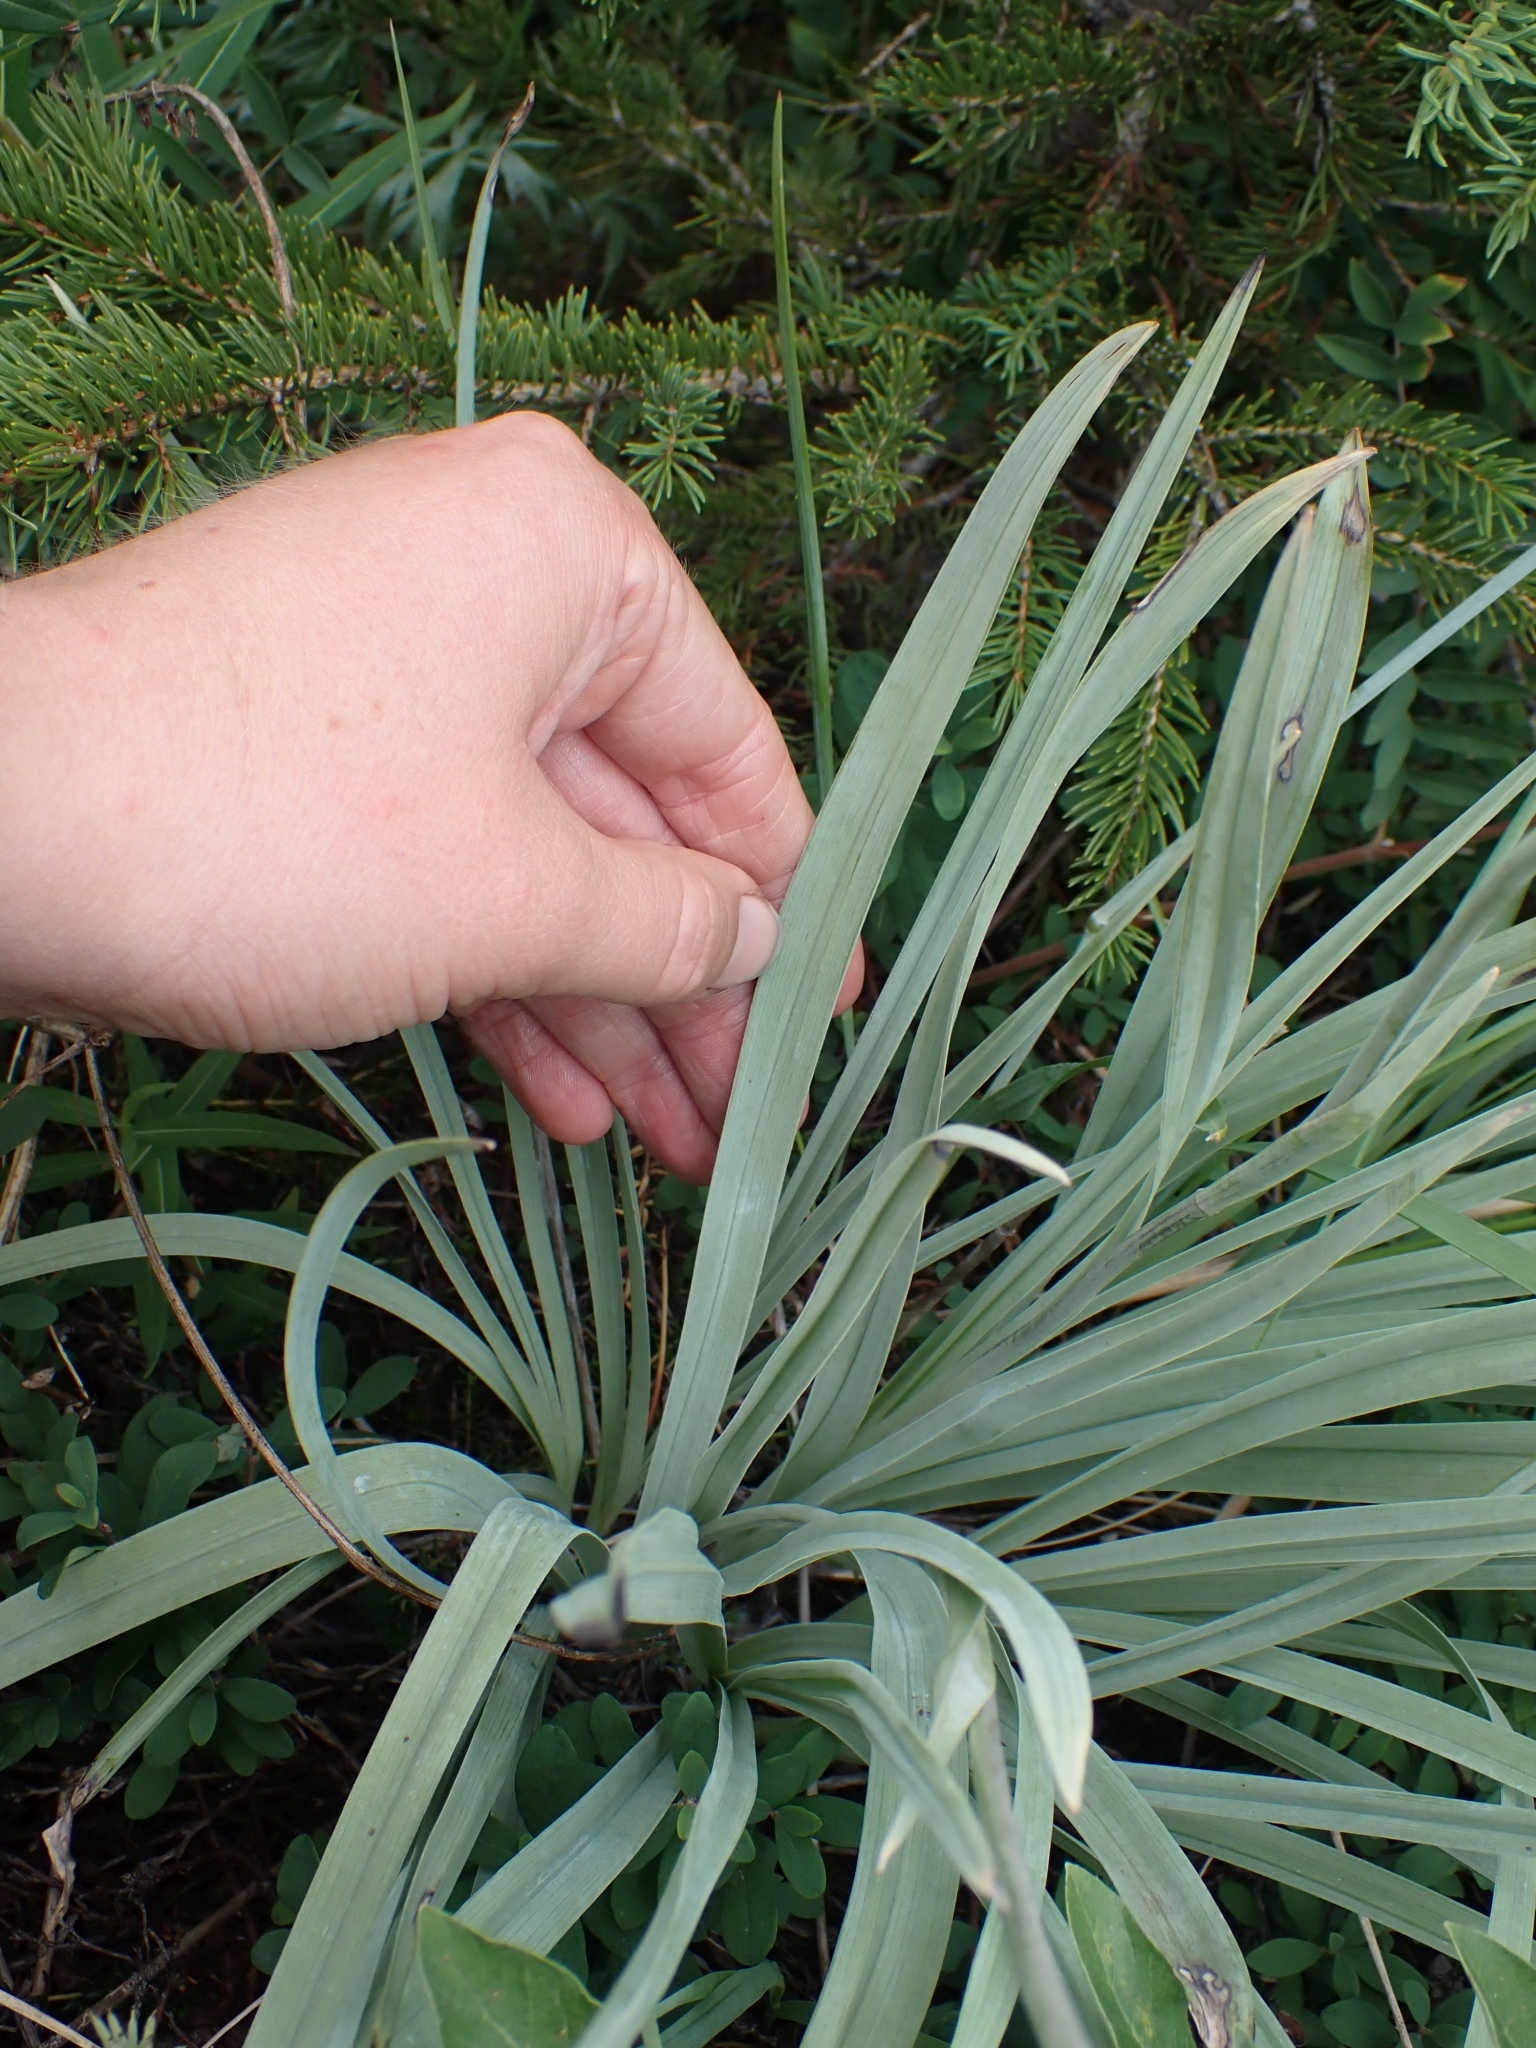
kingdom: Plantae
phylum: Tracheophyta
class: Liliopsida
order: Liliales
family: Melanthiaceae
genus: Anticlea
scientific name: Anticlea elegans
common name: Mountain death camas
